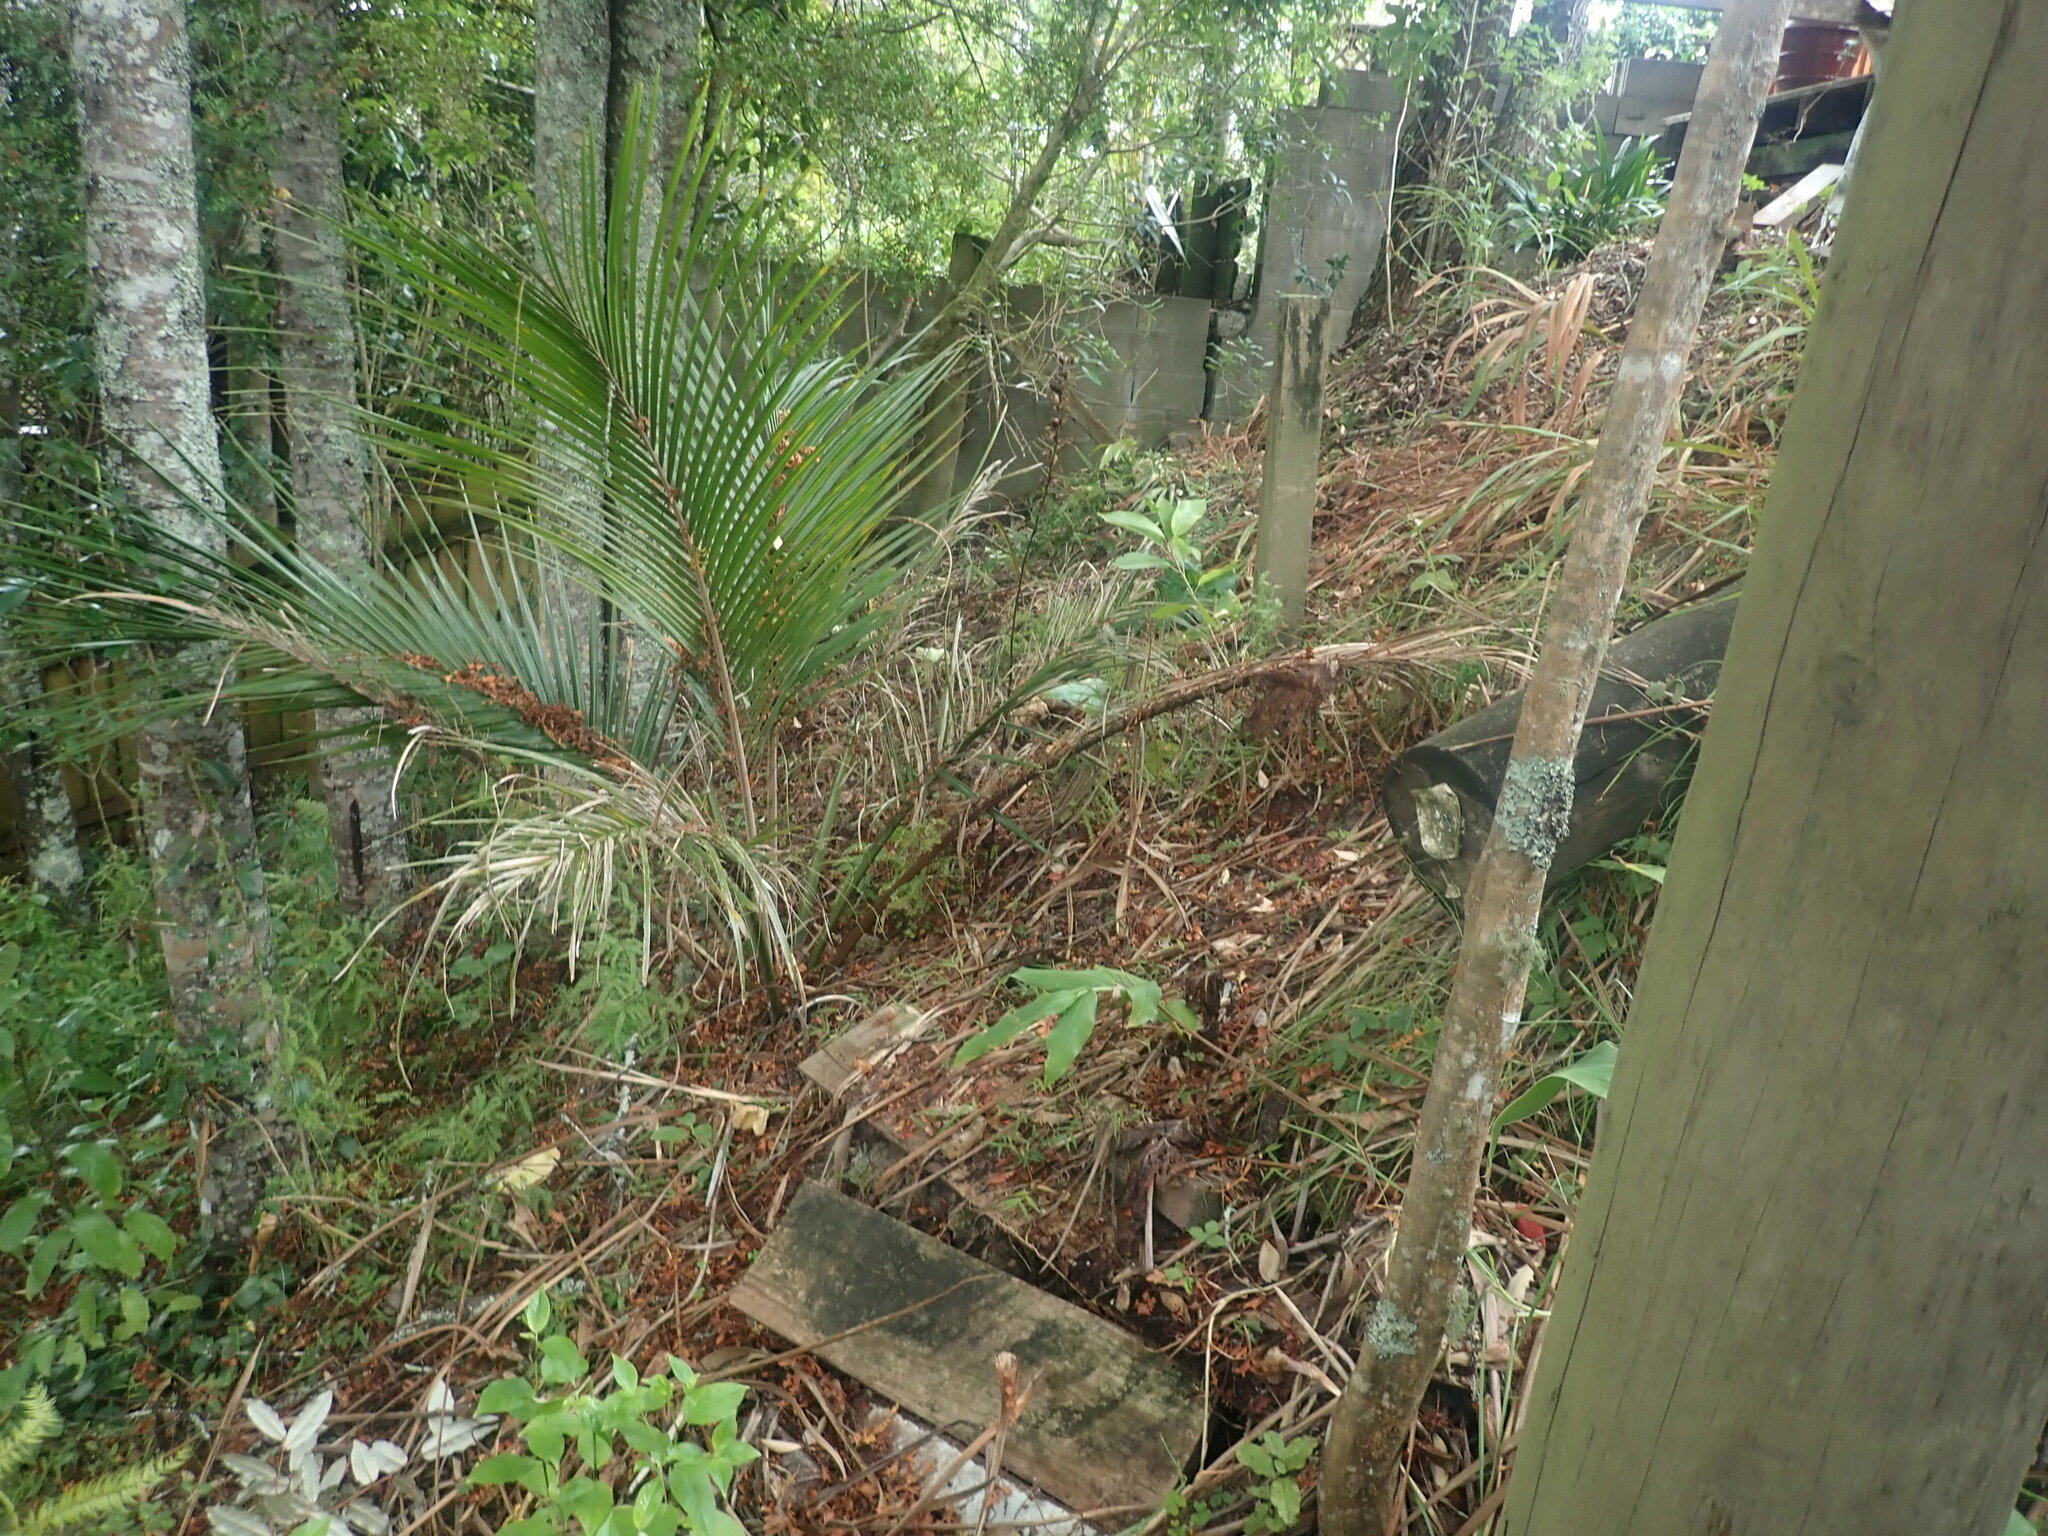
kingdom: Plantae
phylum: Tracheophyta
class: Liliopsida
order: Arecales
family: Arecaceae
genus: Rhopalostylis
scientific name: Rhopalostylis sapida
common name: Feather-duster palm
